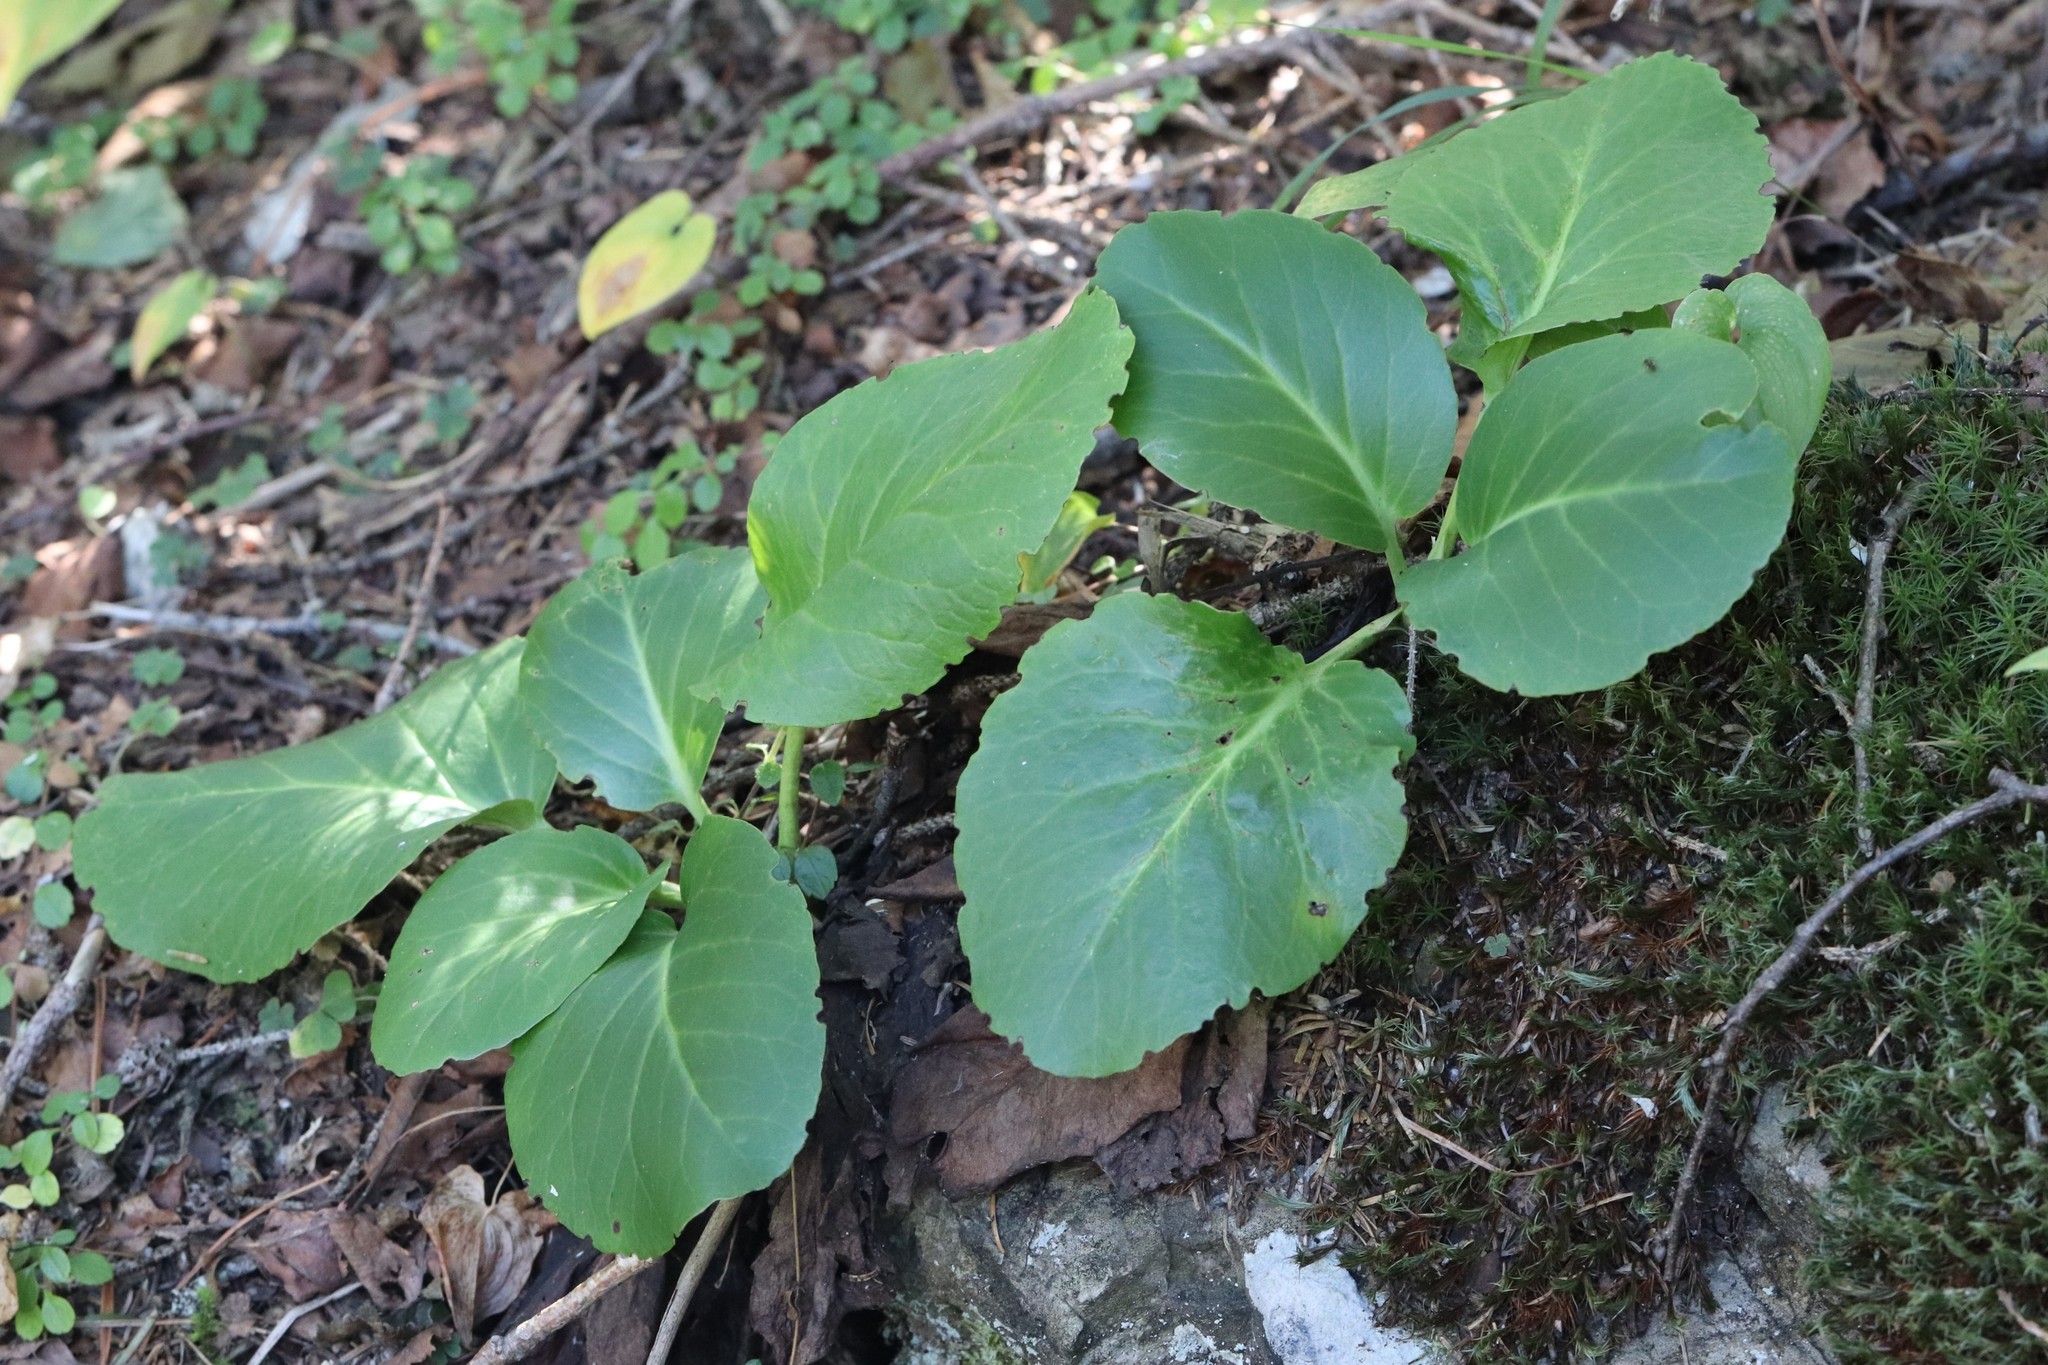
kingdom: Plantae
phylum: Tracheophyta
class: Magnoliopsida
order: Saxifragales
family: Saxifragaceae
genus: Bergenia
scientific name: Bergenia crassifolia
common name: Elephant-ears
